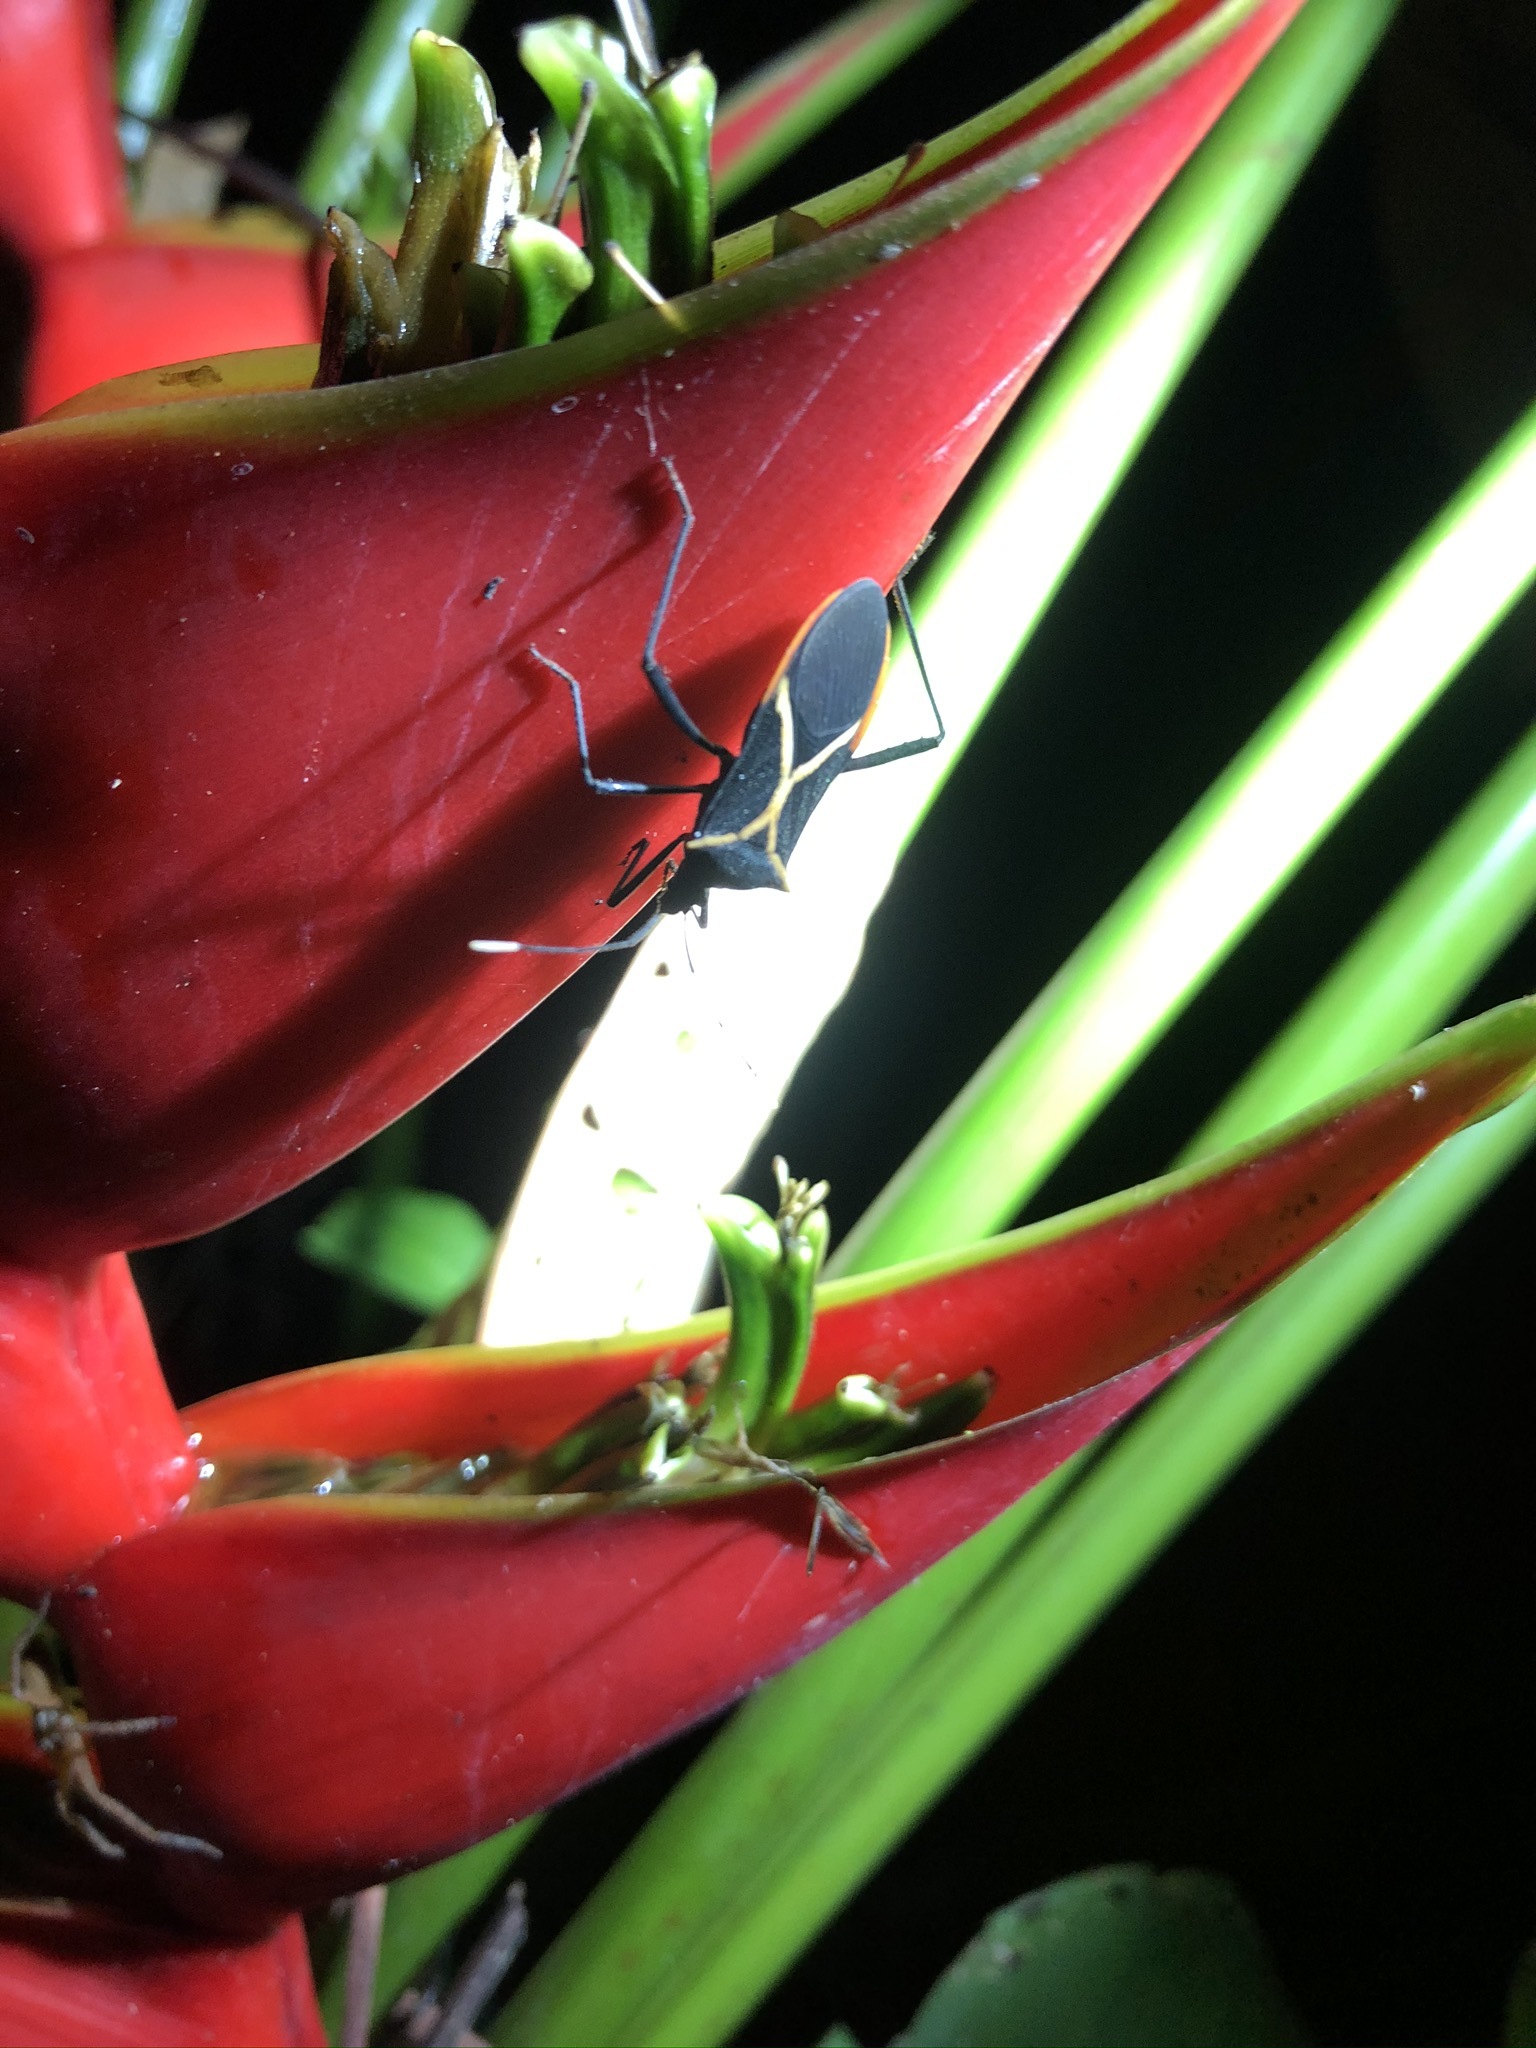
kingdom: Animalia
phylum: Arthropoda
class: Insecta
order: Hemiptera
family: Coreidae
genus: Leptoscelis
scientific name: Leptoscelis conspicuus
